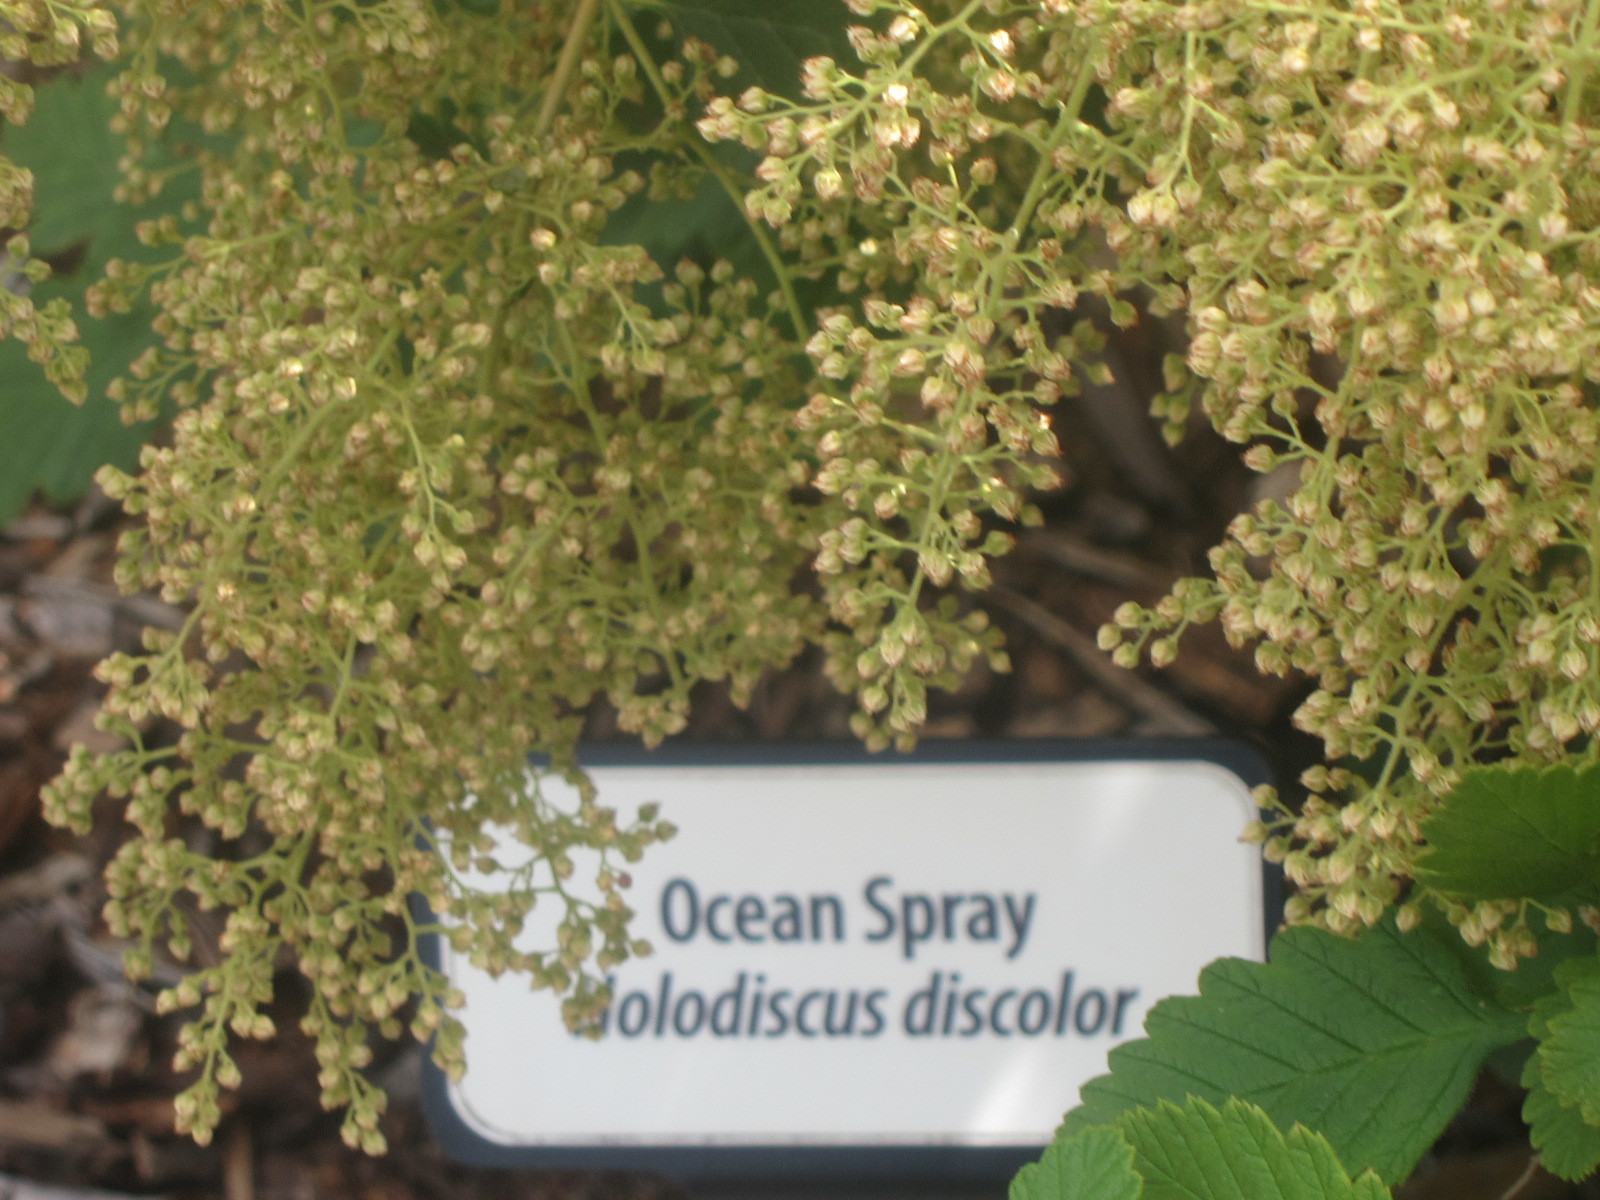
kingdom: Plantae
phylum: Tracheophyta
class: Magnoliopsida
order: Rosales
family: Rosaceae
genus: Holodiscus
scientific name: Holodiscus discolor
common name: Oceanspray
